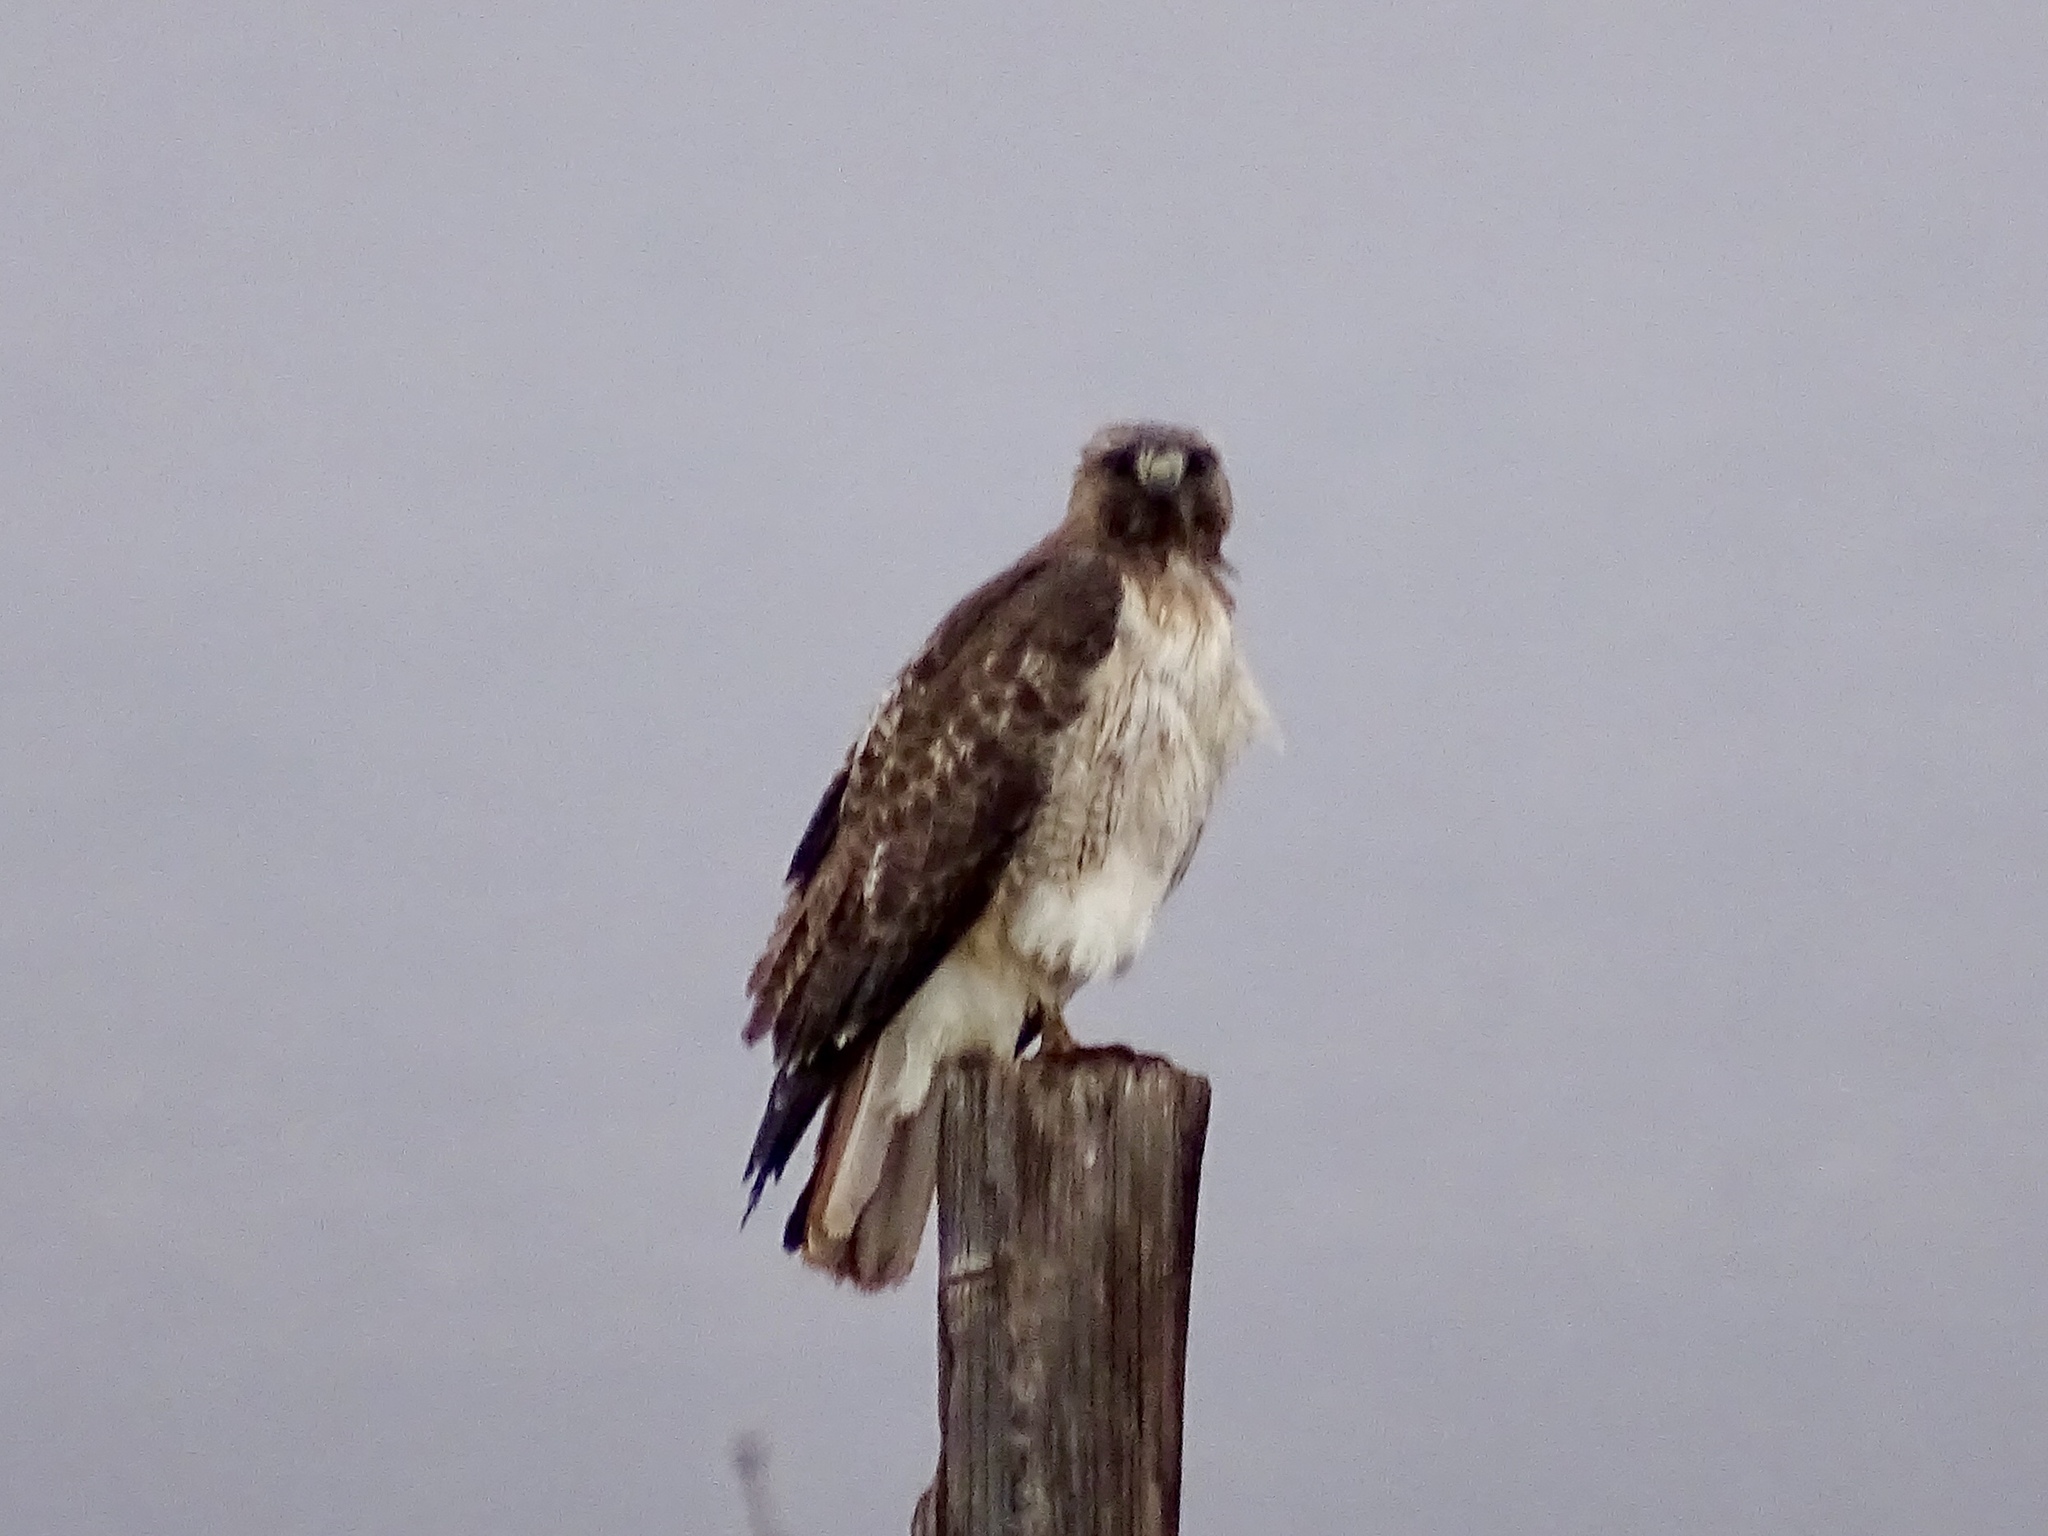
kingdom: Animalia
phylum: Chordata
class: Aves
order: Accipitriformes
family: Accipitridae
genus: Buteo
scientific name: Buteo jamaicensis
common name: Red-tailed hawk
